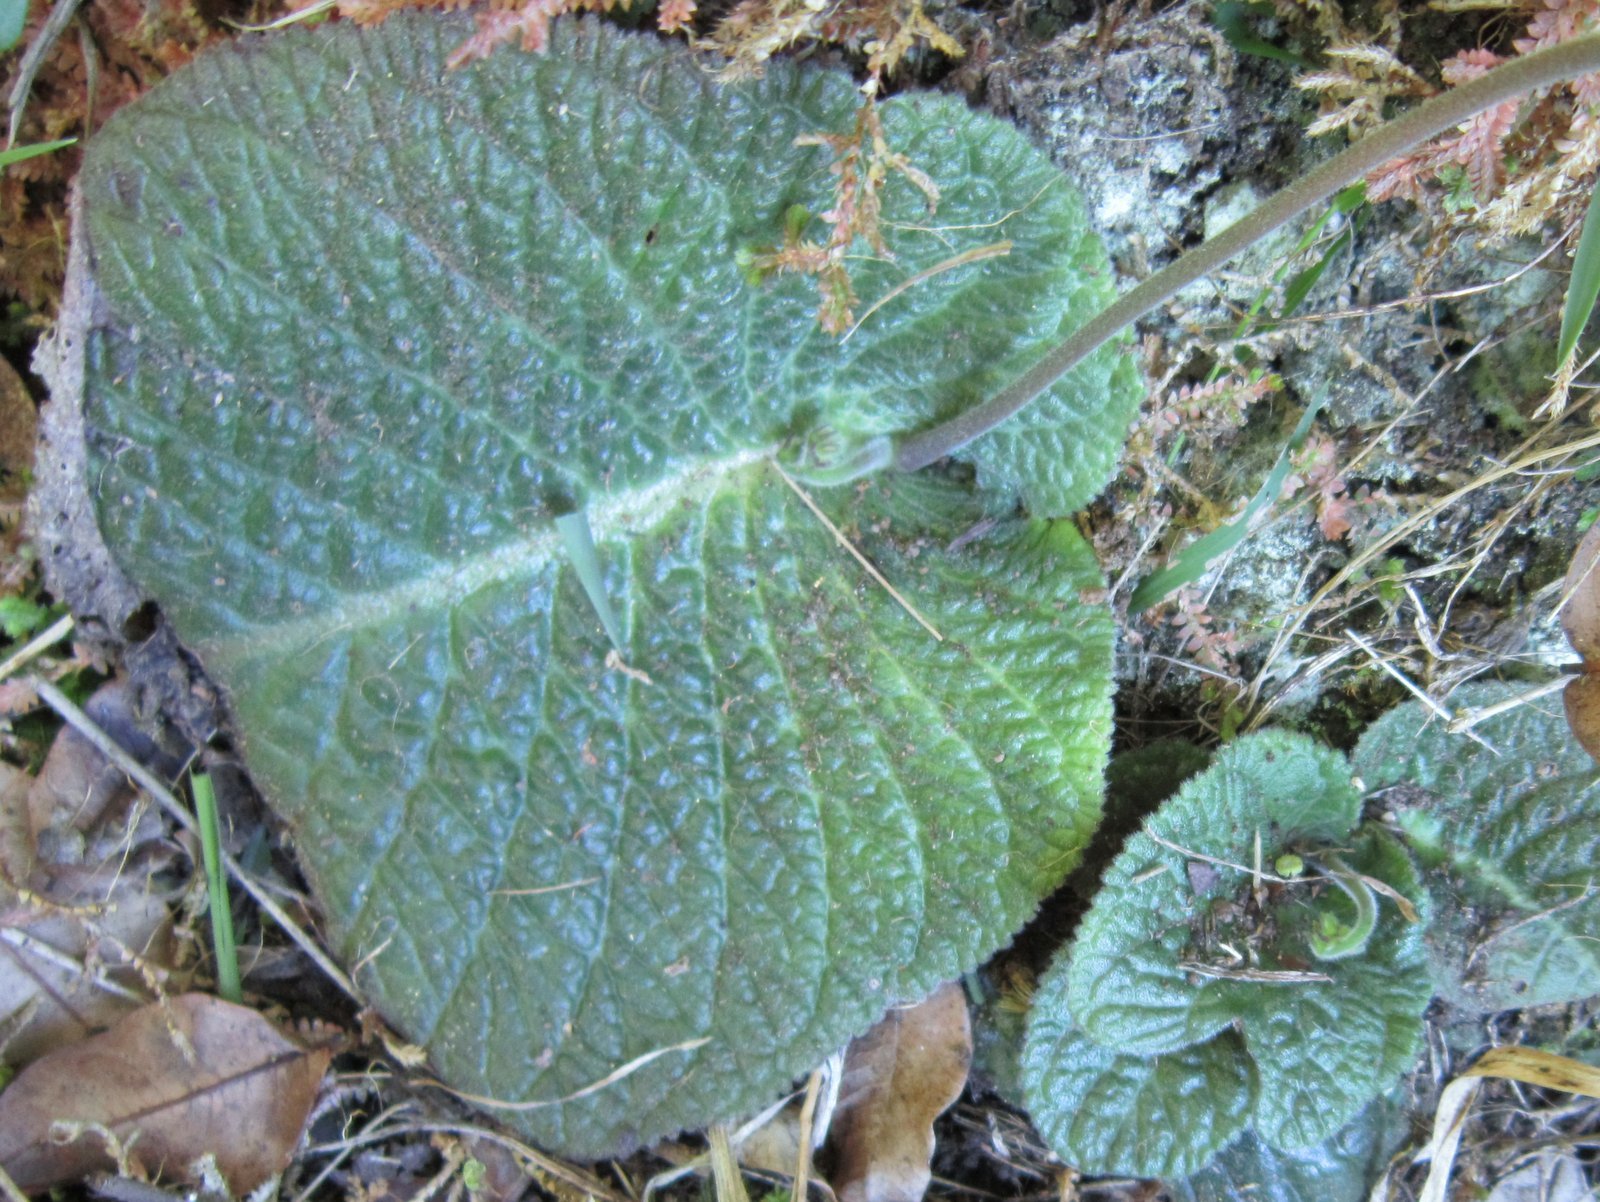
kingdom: Plantae
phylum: Tracheophyta
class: Magnoliopsida
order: Lamiales
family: Gesneriaceae
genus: Streptocarpus
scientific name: Streptocarpus polyanthus
